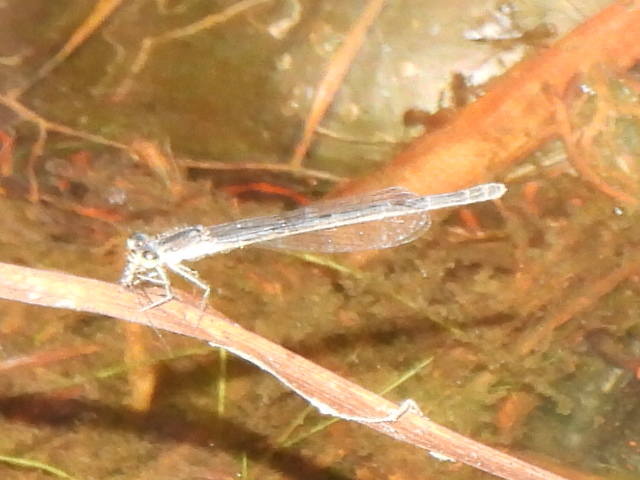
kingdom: Animalia
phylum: Arthropoda
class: Insecta
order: Odonata
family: Coenagrionidae
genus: Ischnura
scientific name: Ischnura posita
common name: Fragile forktail
